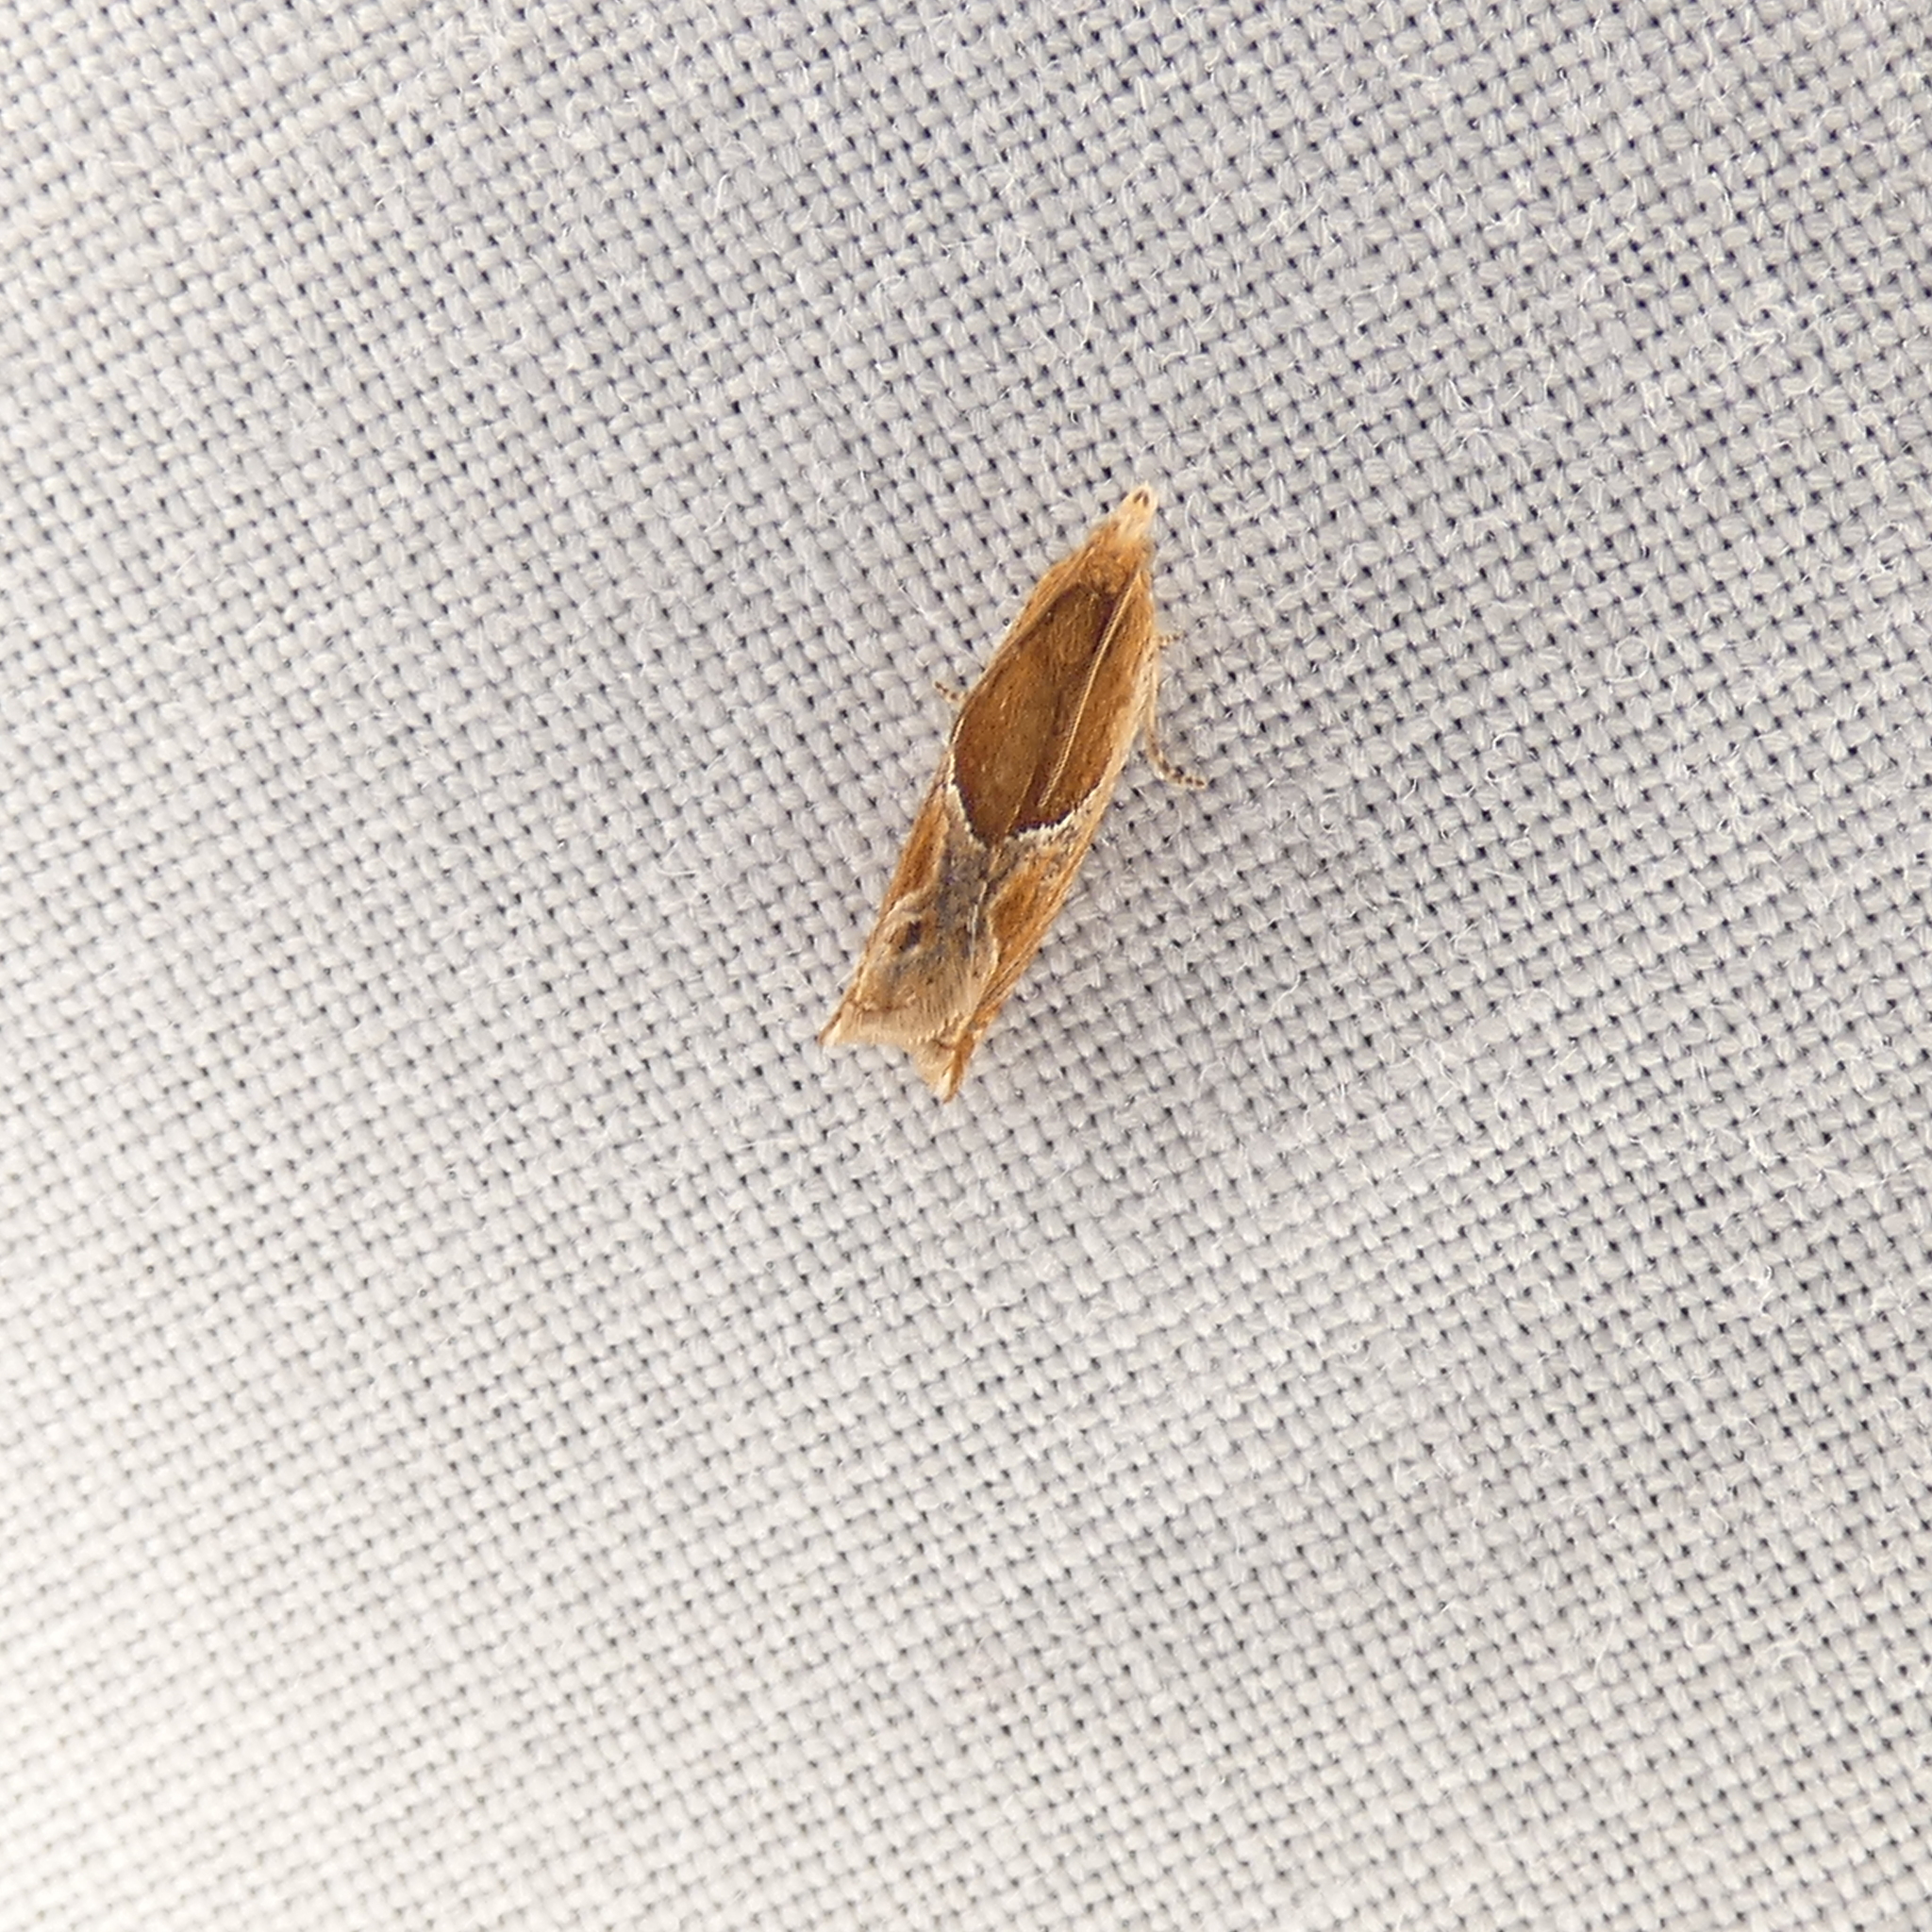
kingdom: Animalia
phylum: Arthropoda
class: Insecta
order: Lepidoptera
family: Tortricidae
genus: Ancylis
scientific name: Ancylis comptana
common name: Little roller
